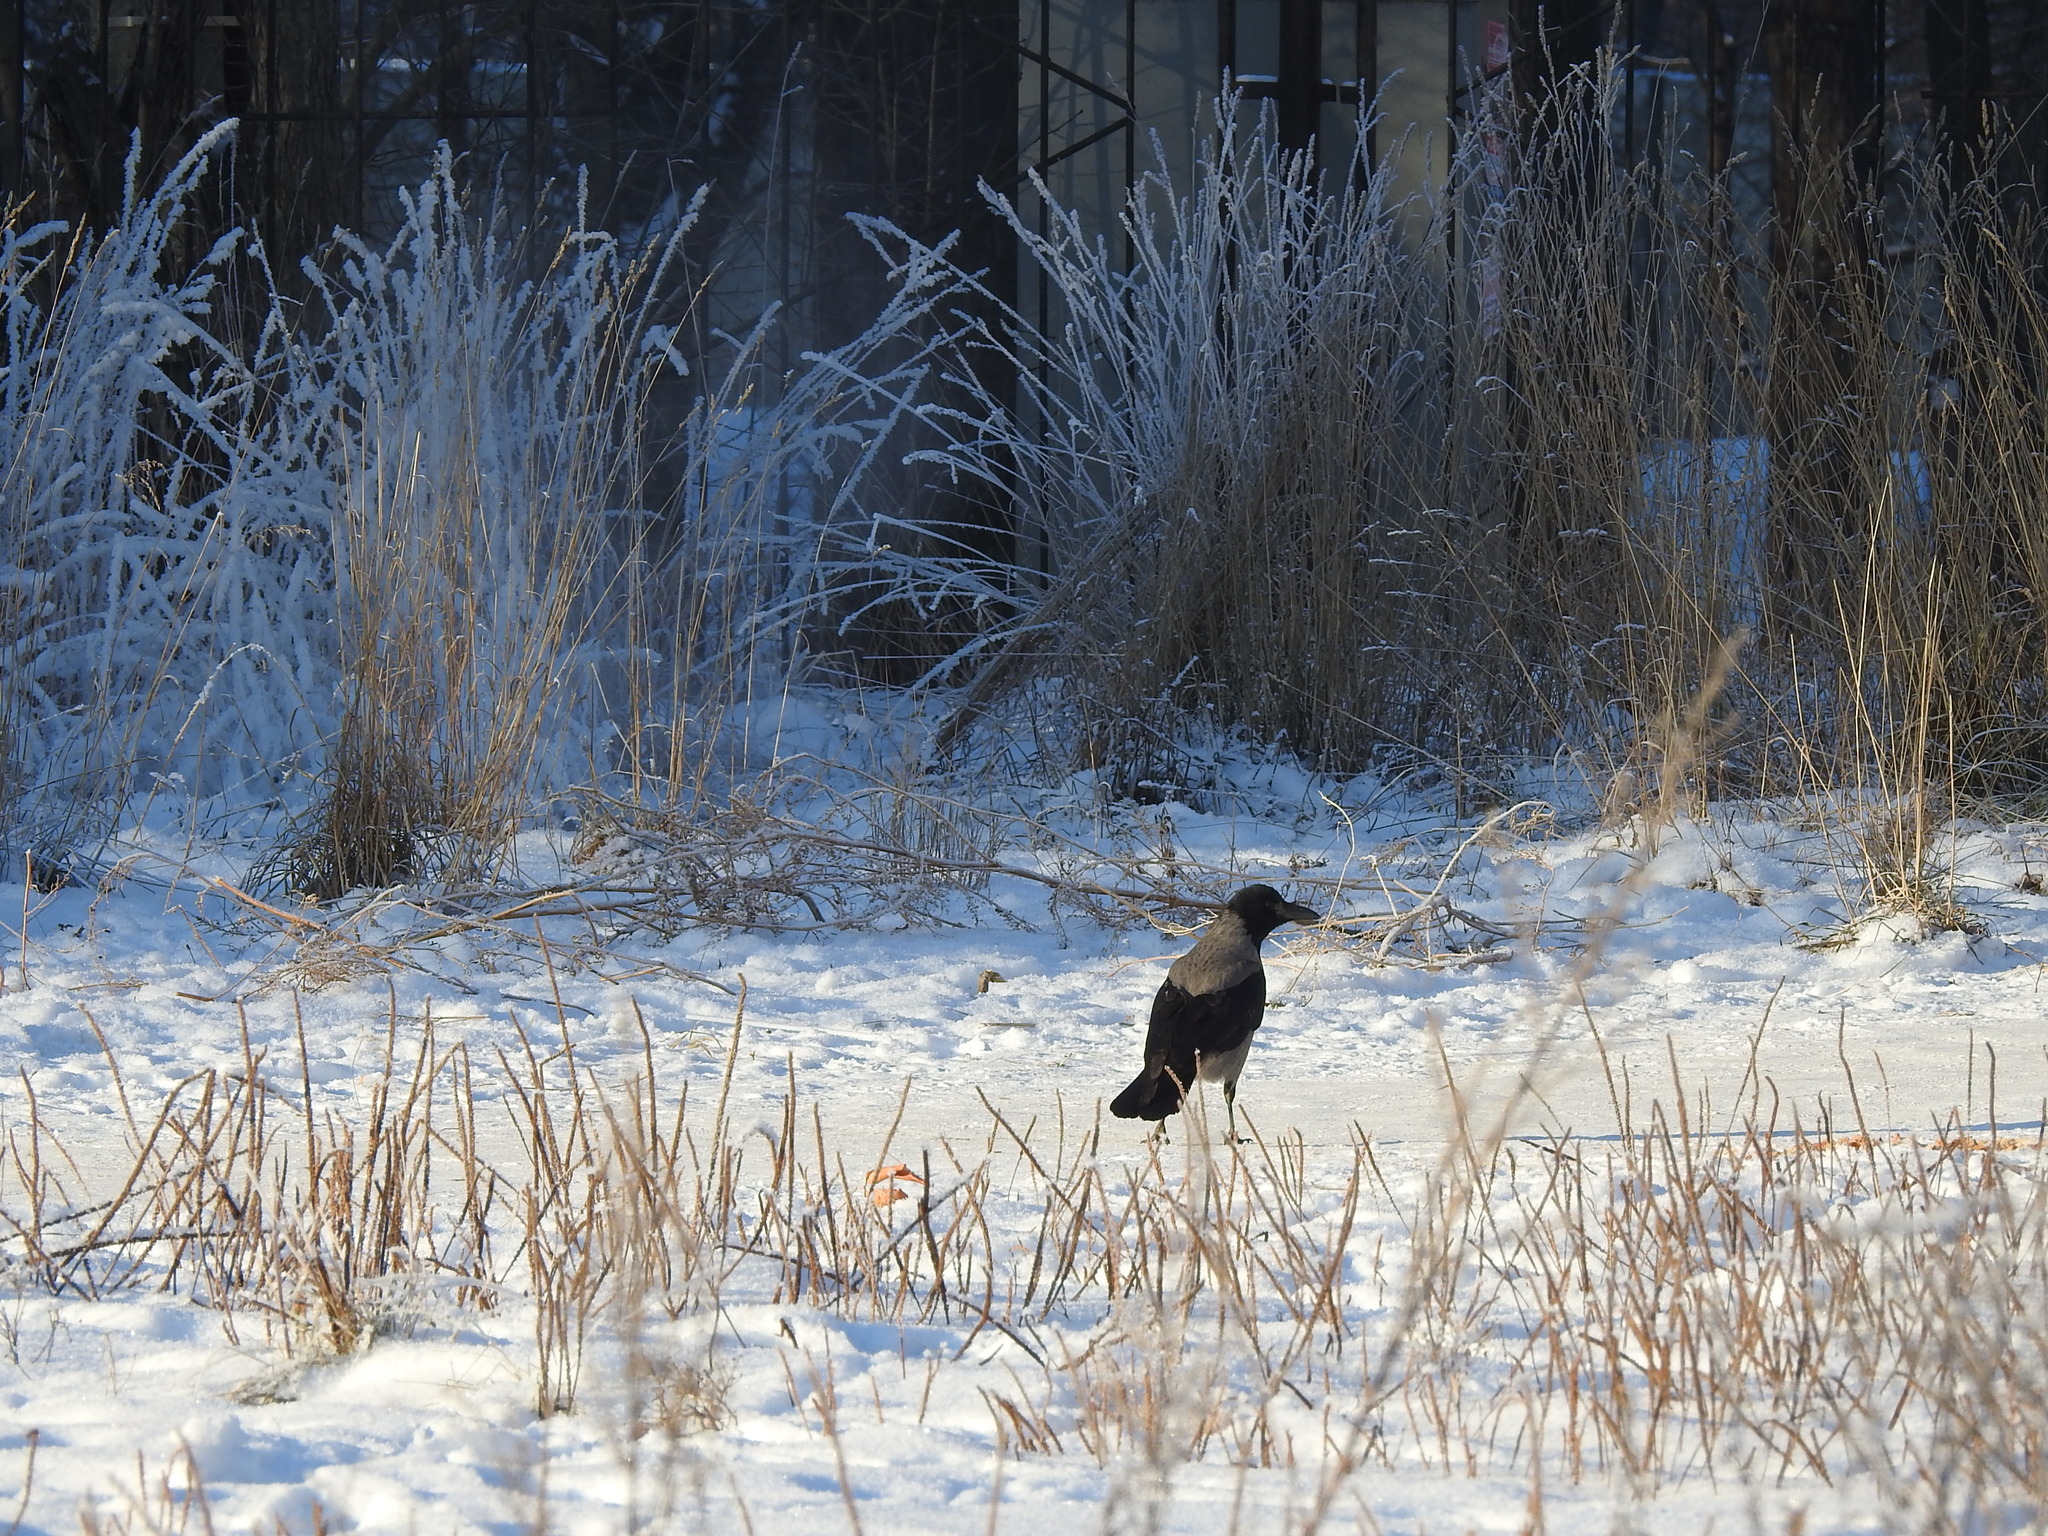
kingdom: Animalia
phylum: Chordata
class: Aves
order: Passeriformes
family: Corvidae
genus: Corvus
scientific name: Corvus cornix
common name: Hooded crow
